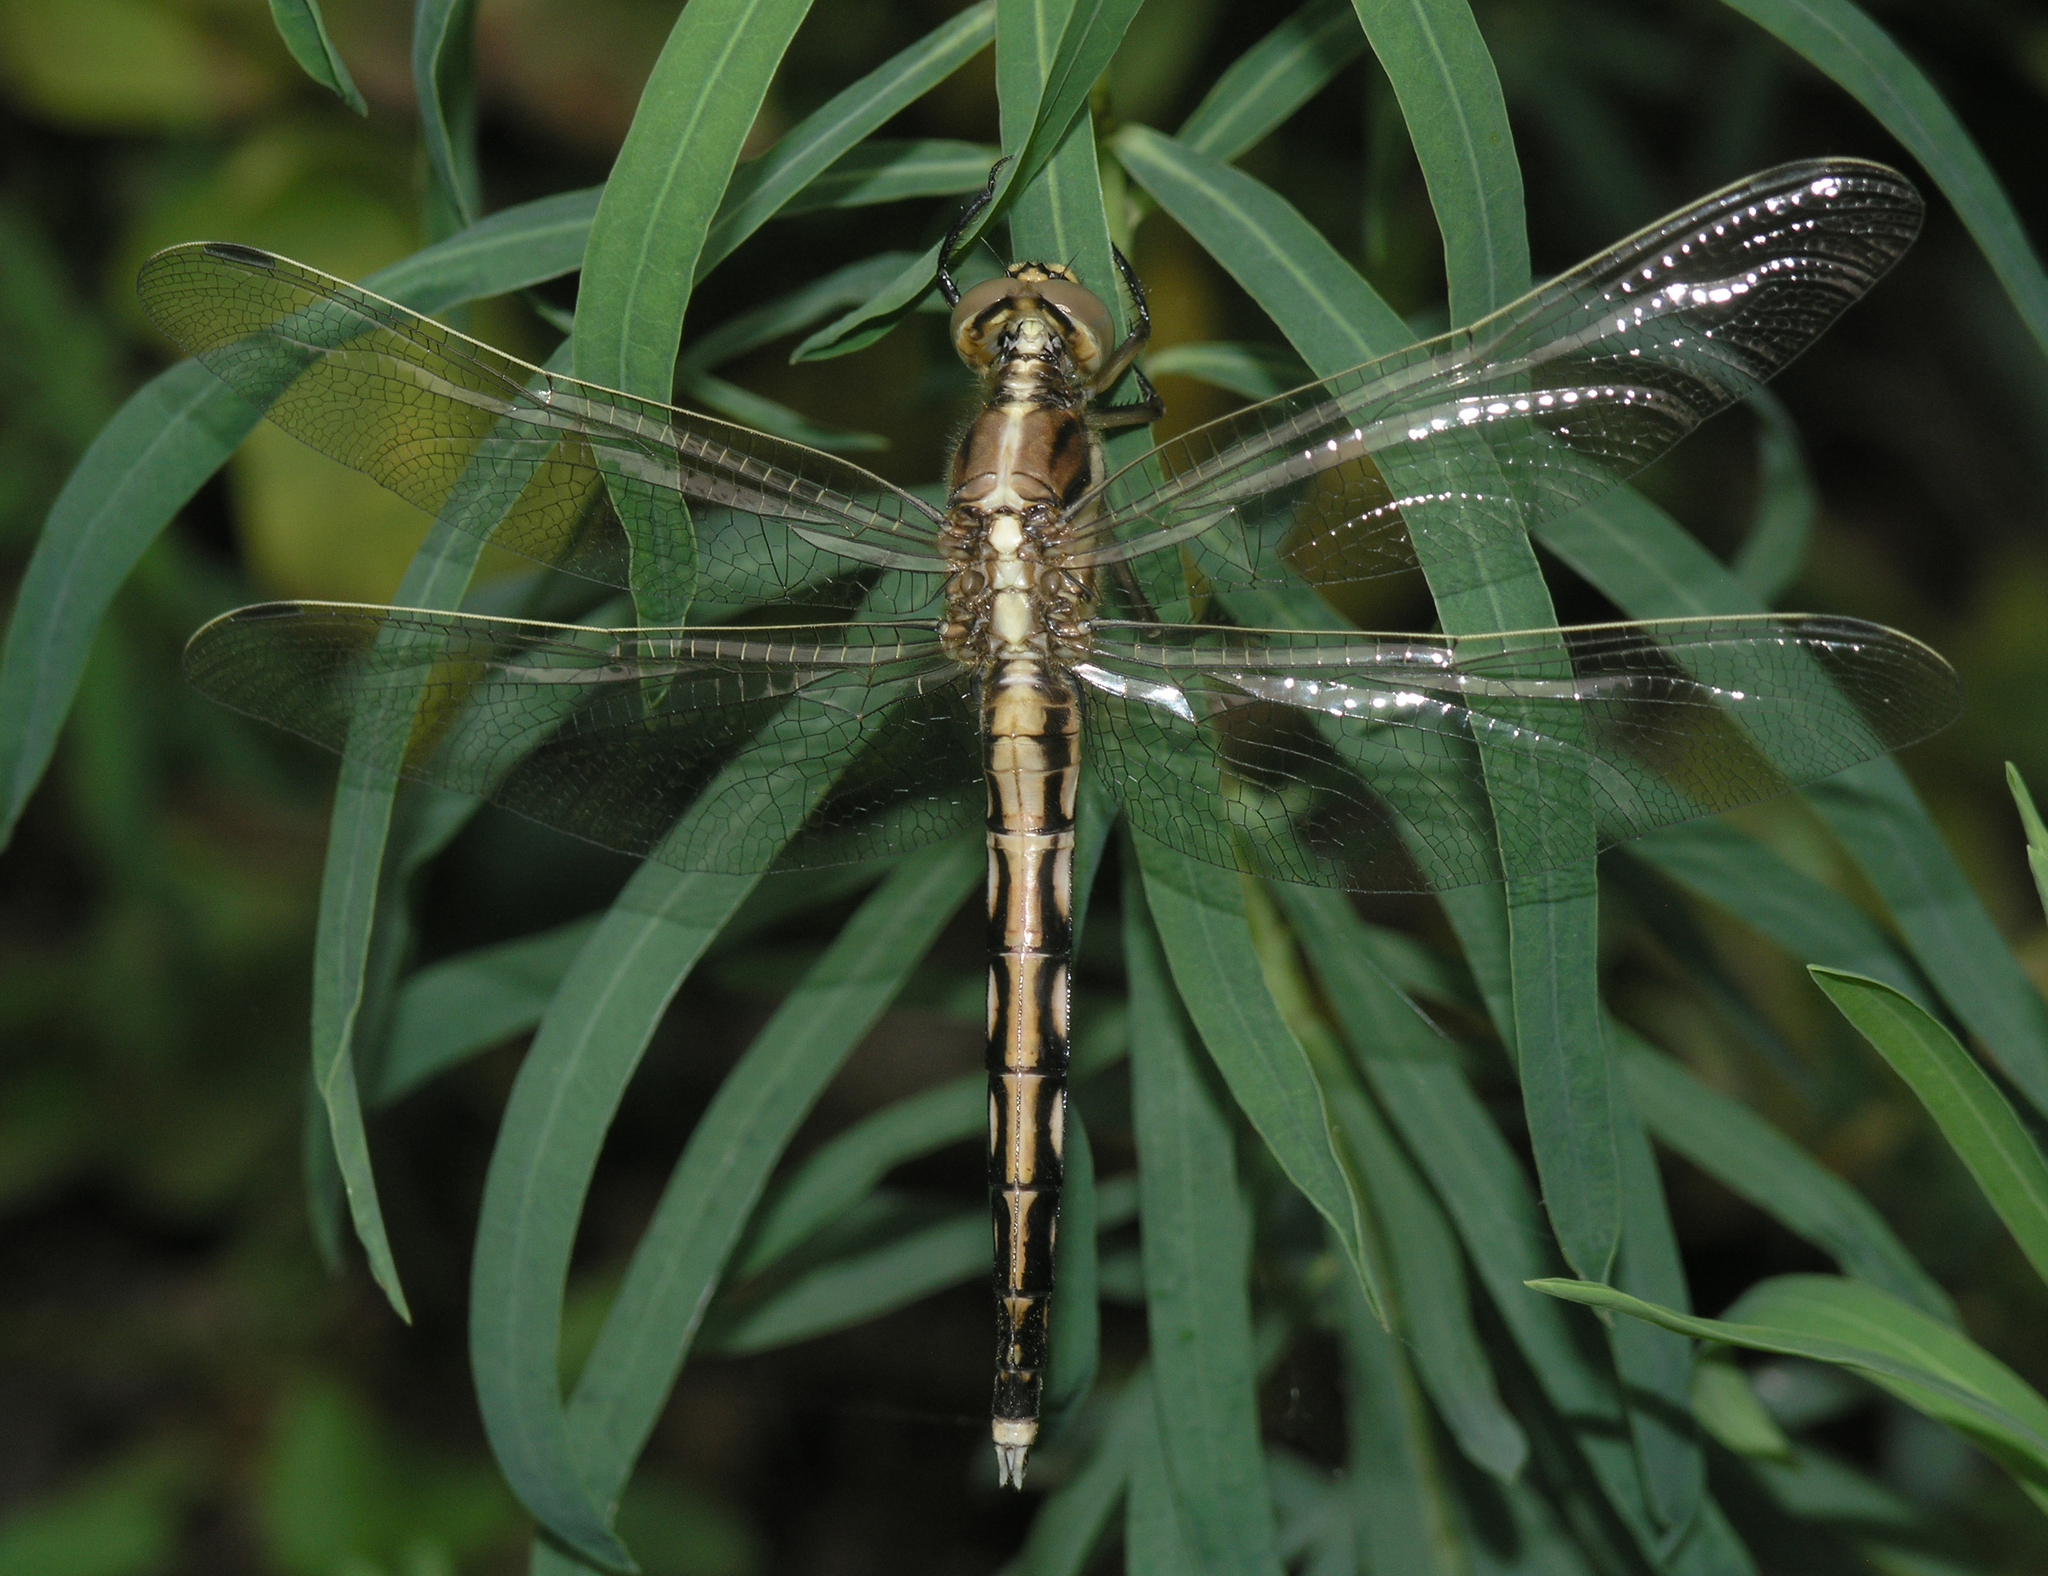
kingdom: Animalia
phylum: Arthropoda
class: Insecta
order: Odonata
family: Libellulidae
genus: Orthetrum
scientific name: Orthetrum albistylum
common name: White-tailed skimmer
